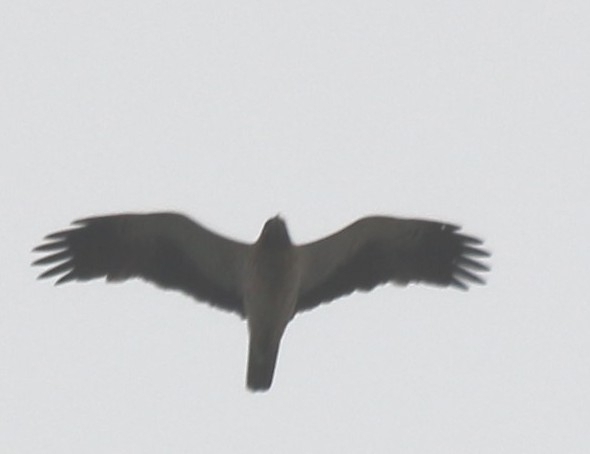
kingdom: Animalia
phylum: Chordata
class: Aves
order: Accipitriformes
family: Accipitridae
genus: Hieraaetus
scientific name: Hieraaetus pennatus
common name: Booted eagle
